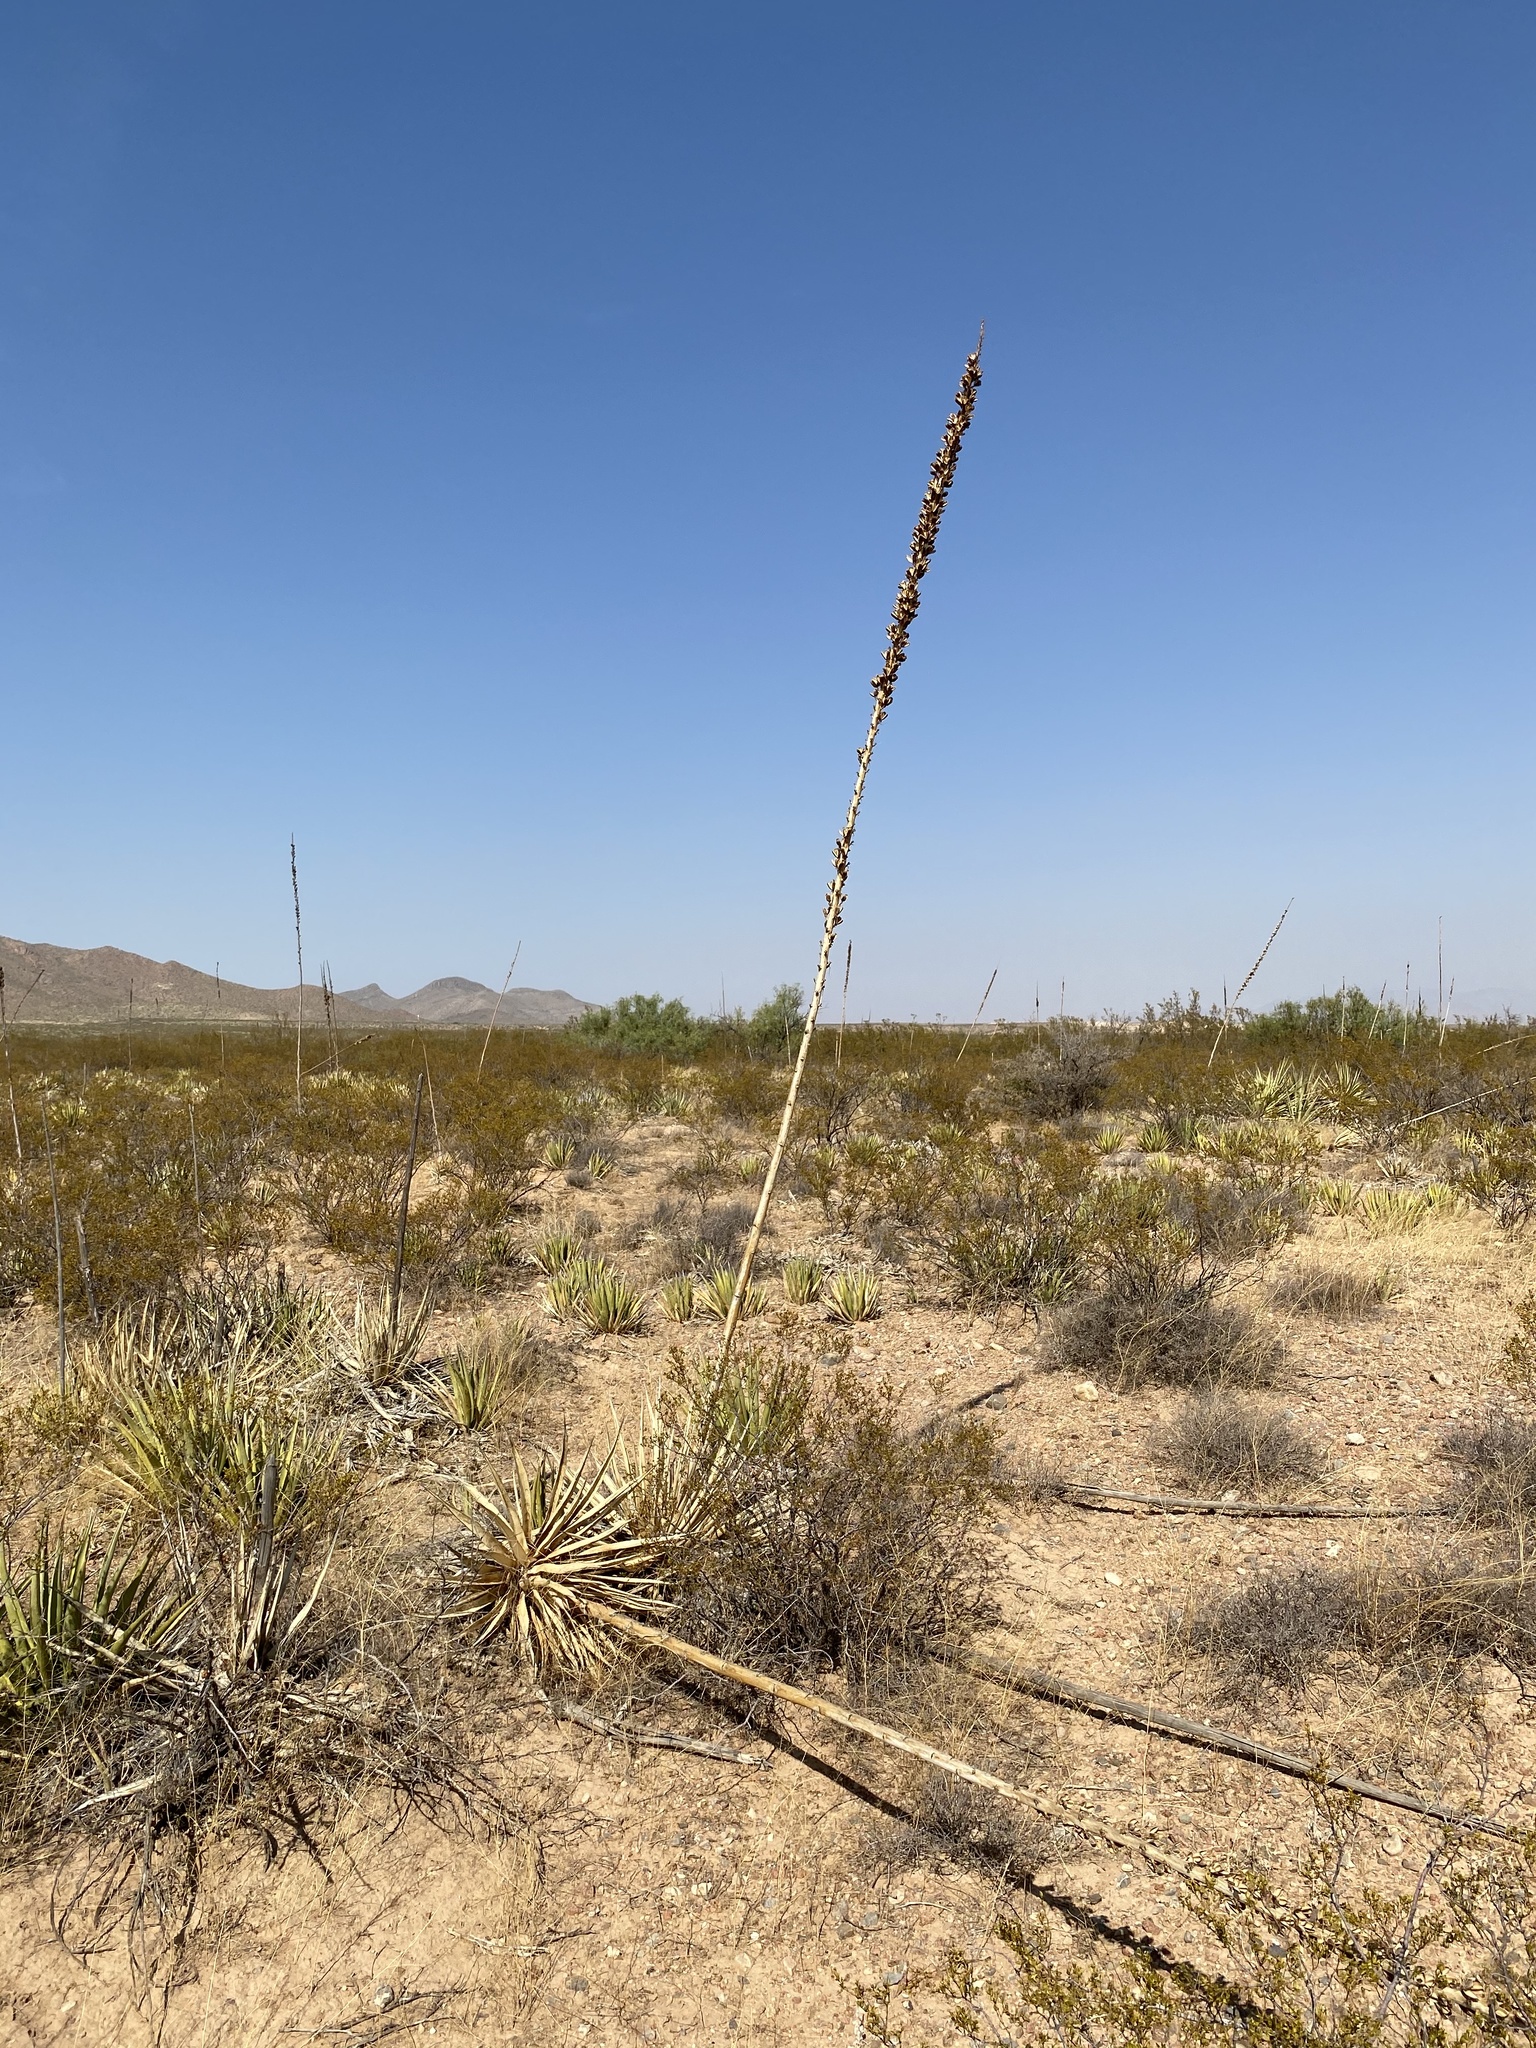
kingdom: Plantae
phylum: Tracheophyta
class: Liliopsida
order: Asparagales
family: Asparagaceae
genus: Agave
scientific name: Agave lechuguilla
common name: Lecheguilla agave
